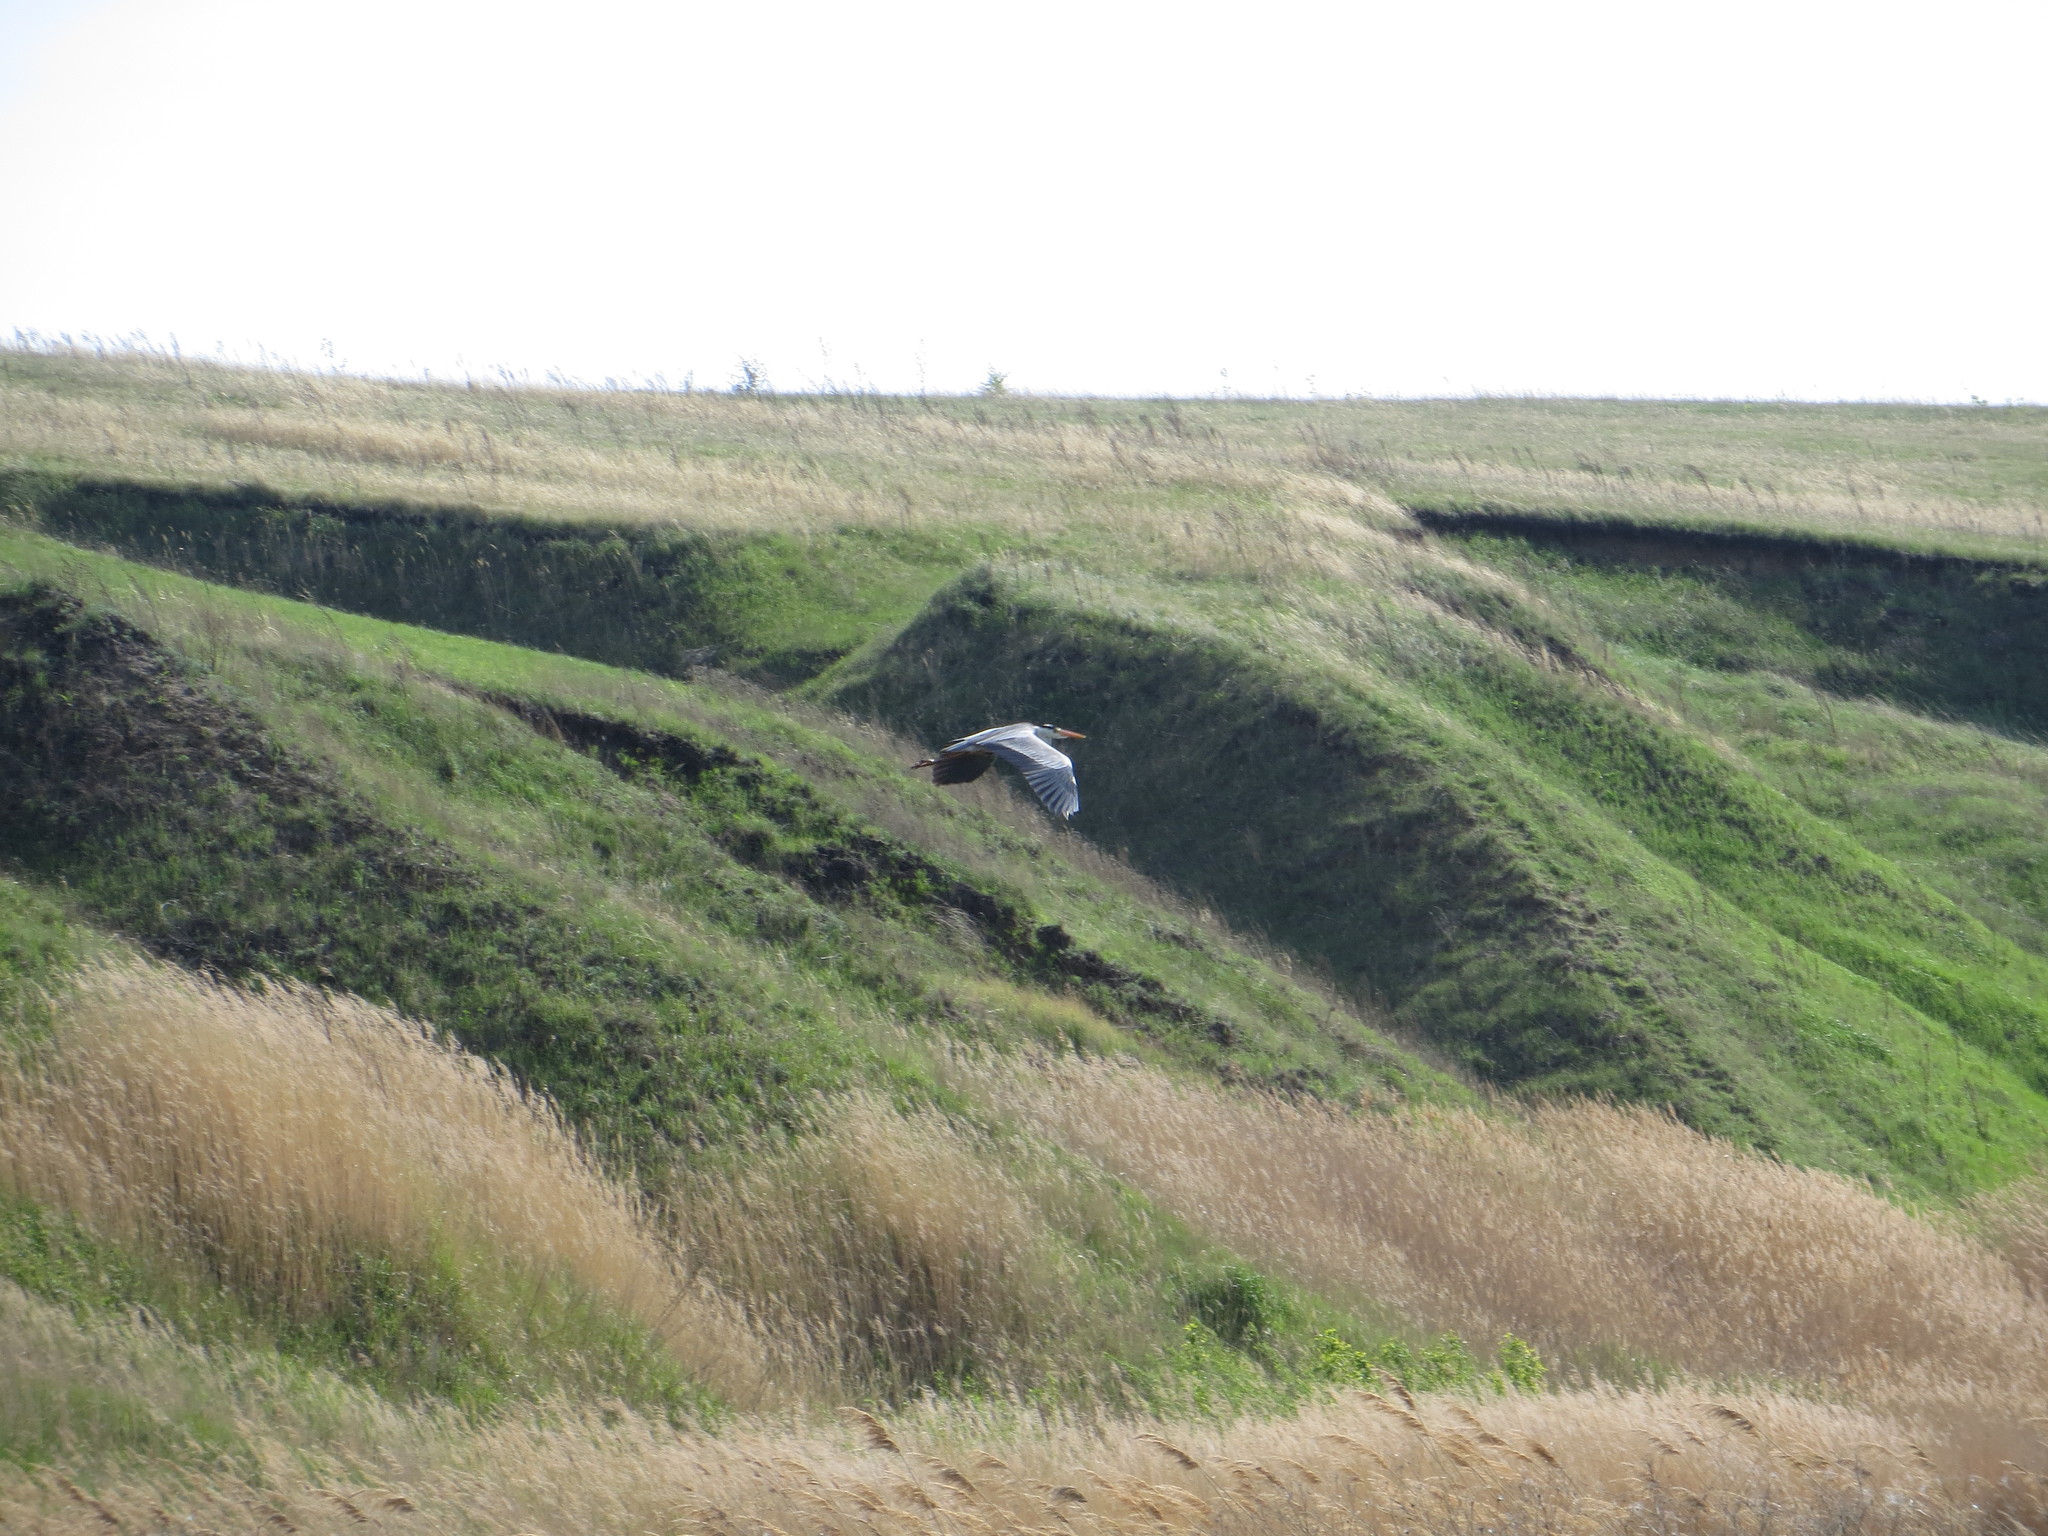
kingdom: Animalia
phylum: Chordata
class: Aves
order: Pelecaniformes
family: Ardeidae
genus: Ardea
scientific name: Ardea cinerea
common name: Grey heron
